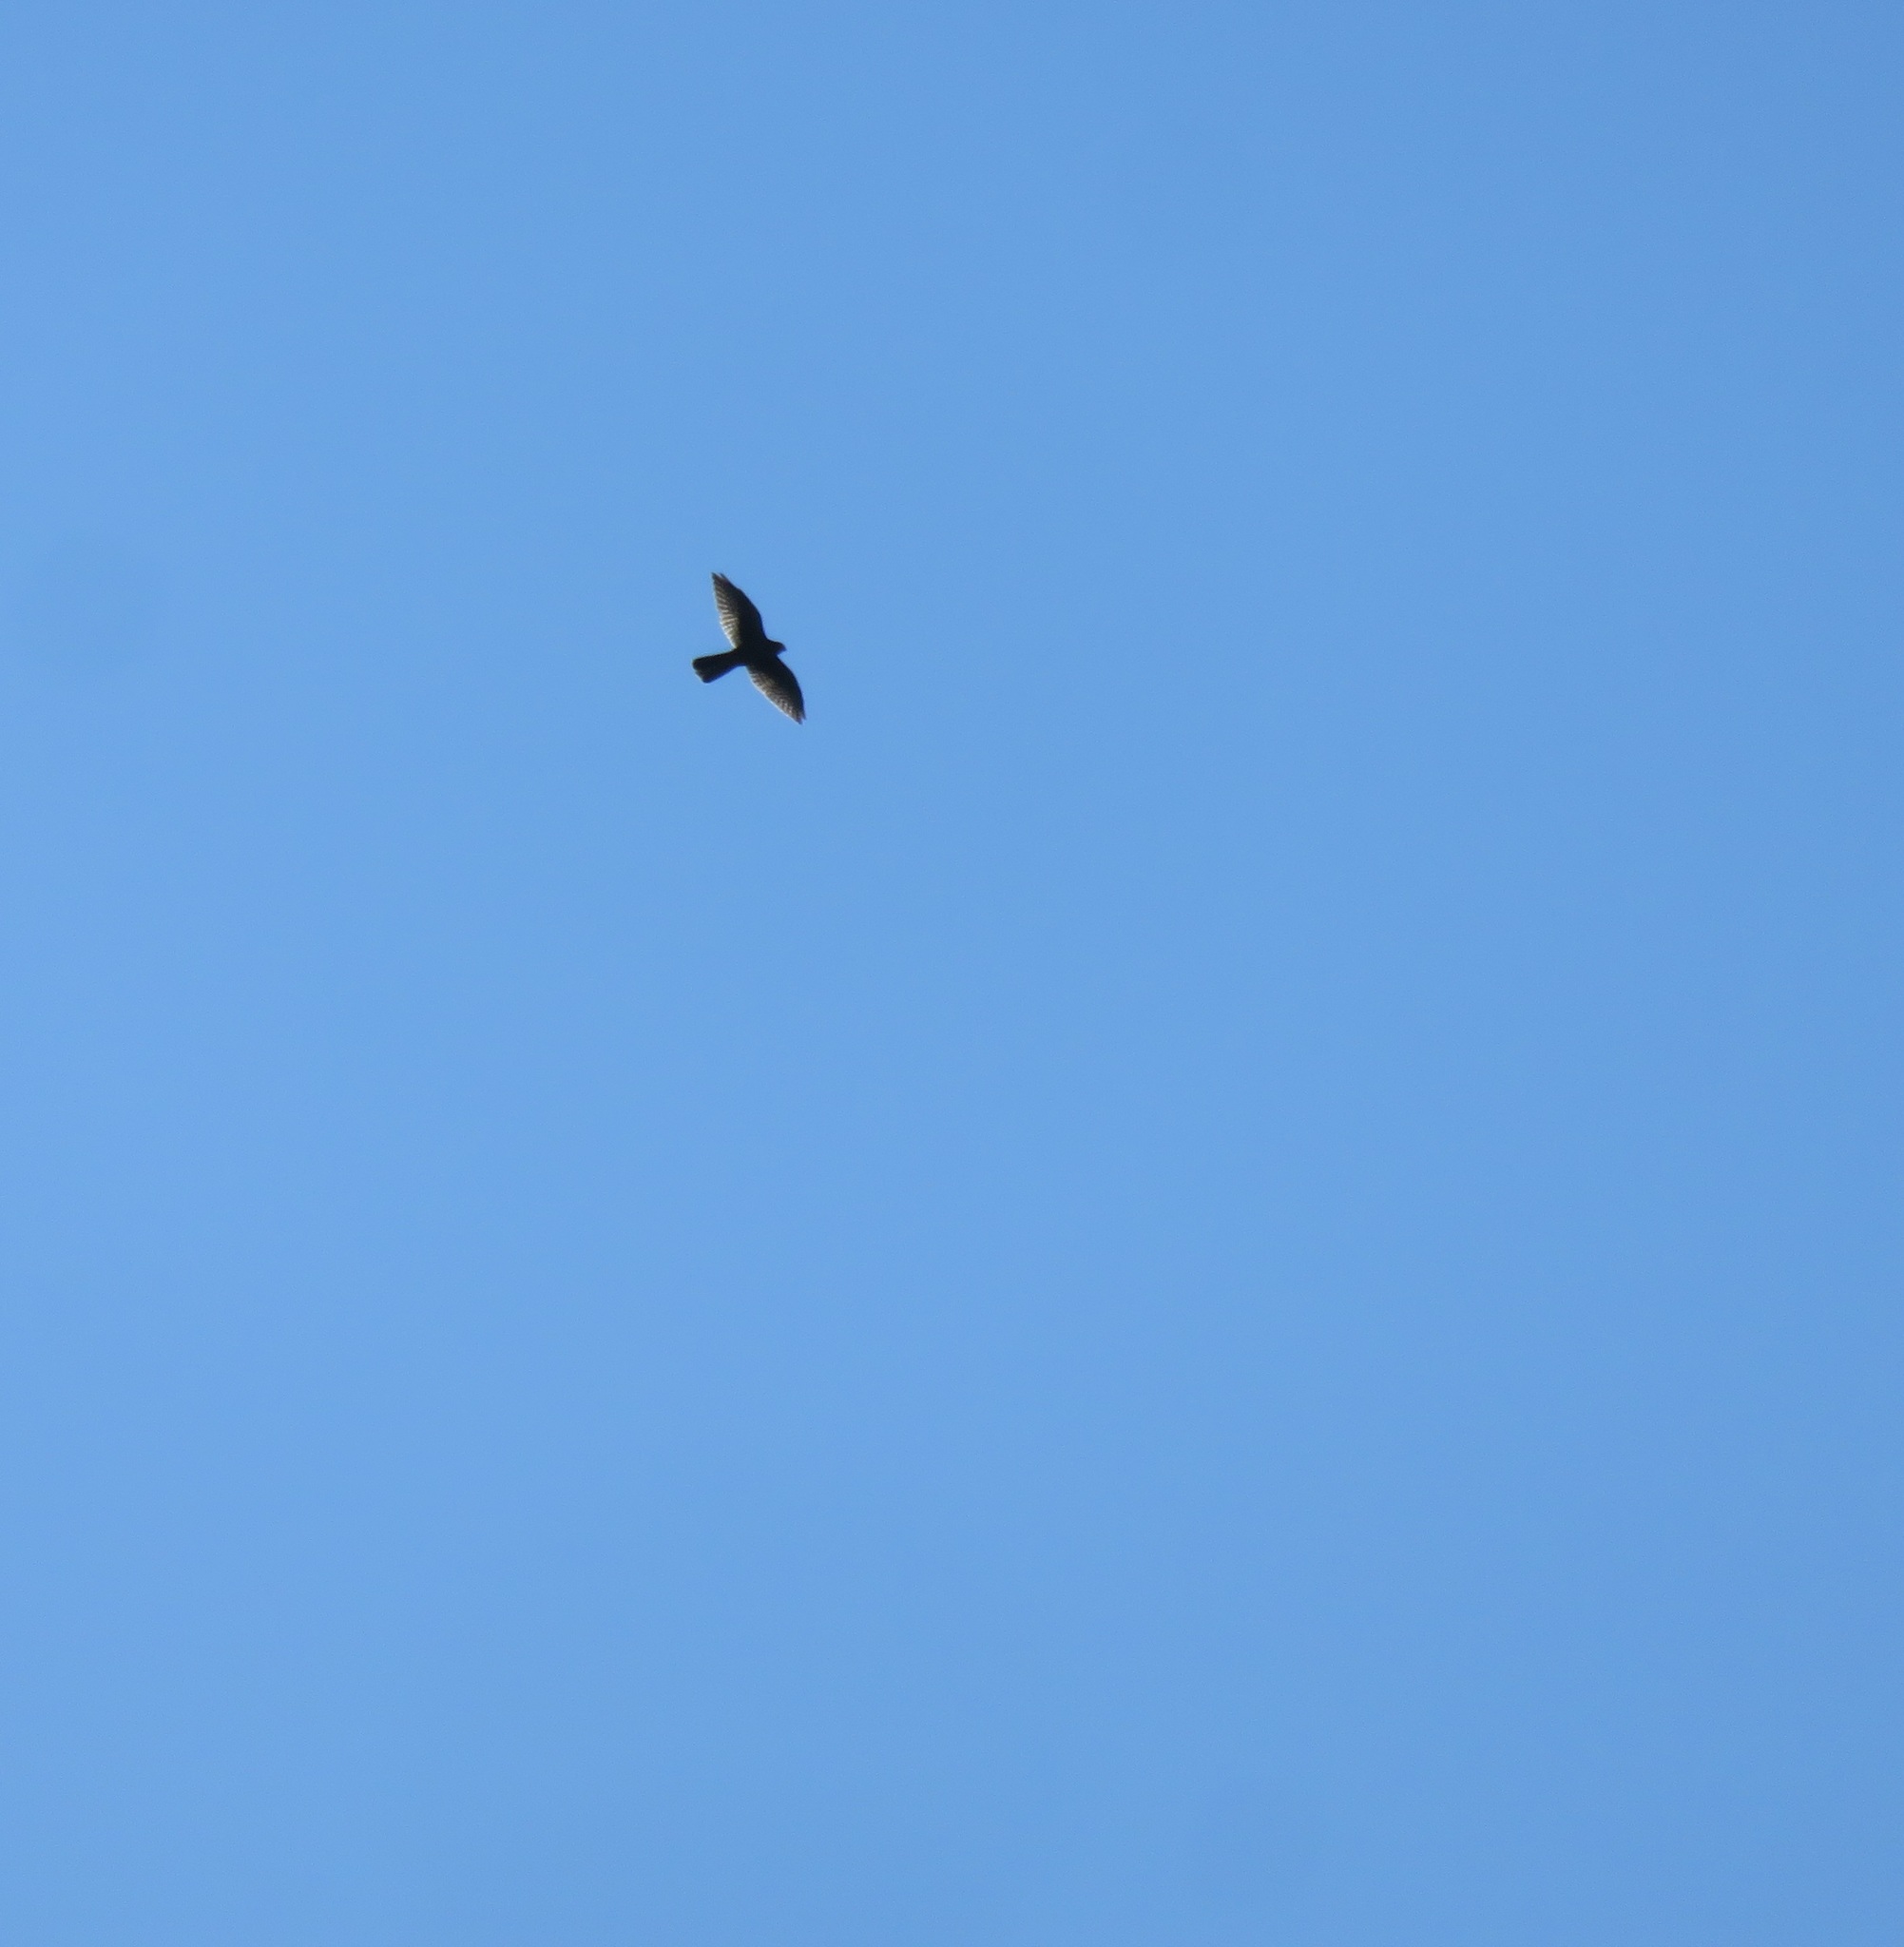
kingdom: Animalia
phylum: Chordata
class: Aves
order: Falconiformes
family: Falconidae
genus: Falco
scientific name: Falco novaeseelandiae
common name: New zealand falcon
